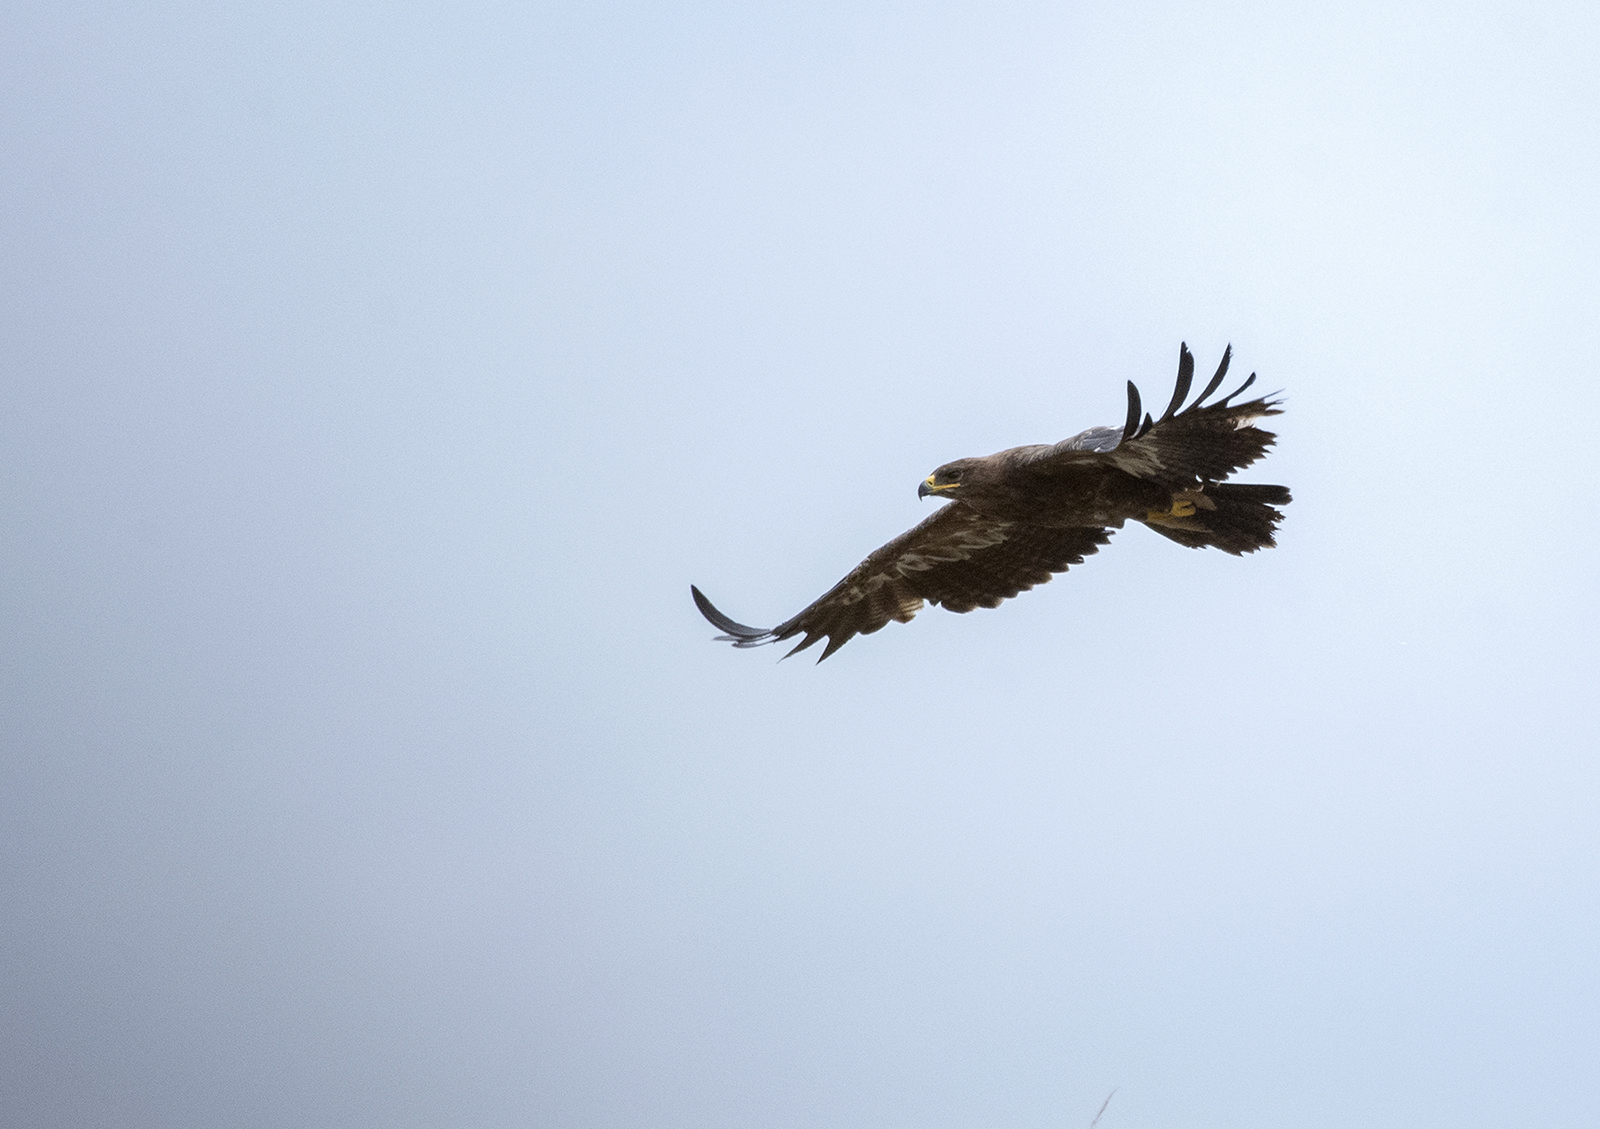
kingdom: Animalia
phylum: Chordata
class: Aves
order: Accipitriformes
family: Accipitridae
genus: Aquila
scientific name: Aquila nipalensis
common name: Steppe eagle
